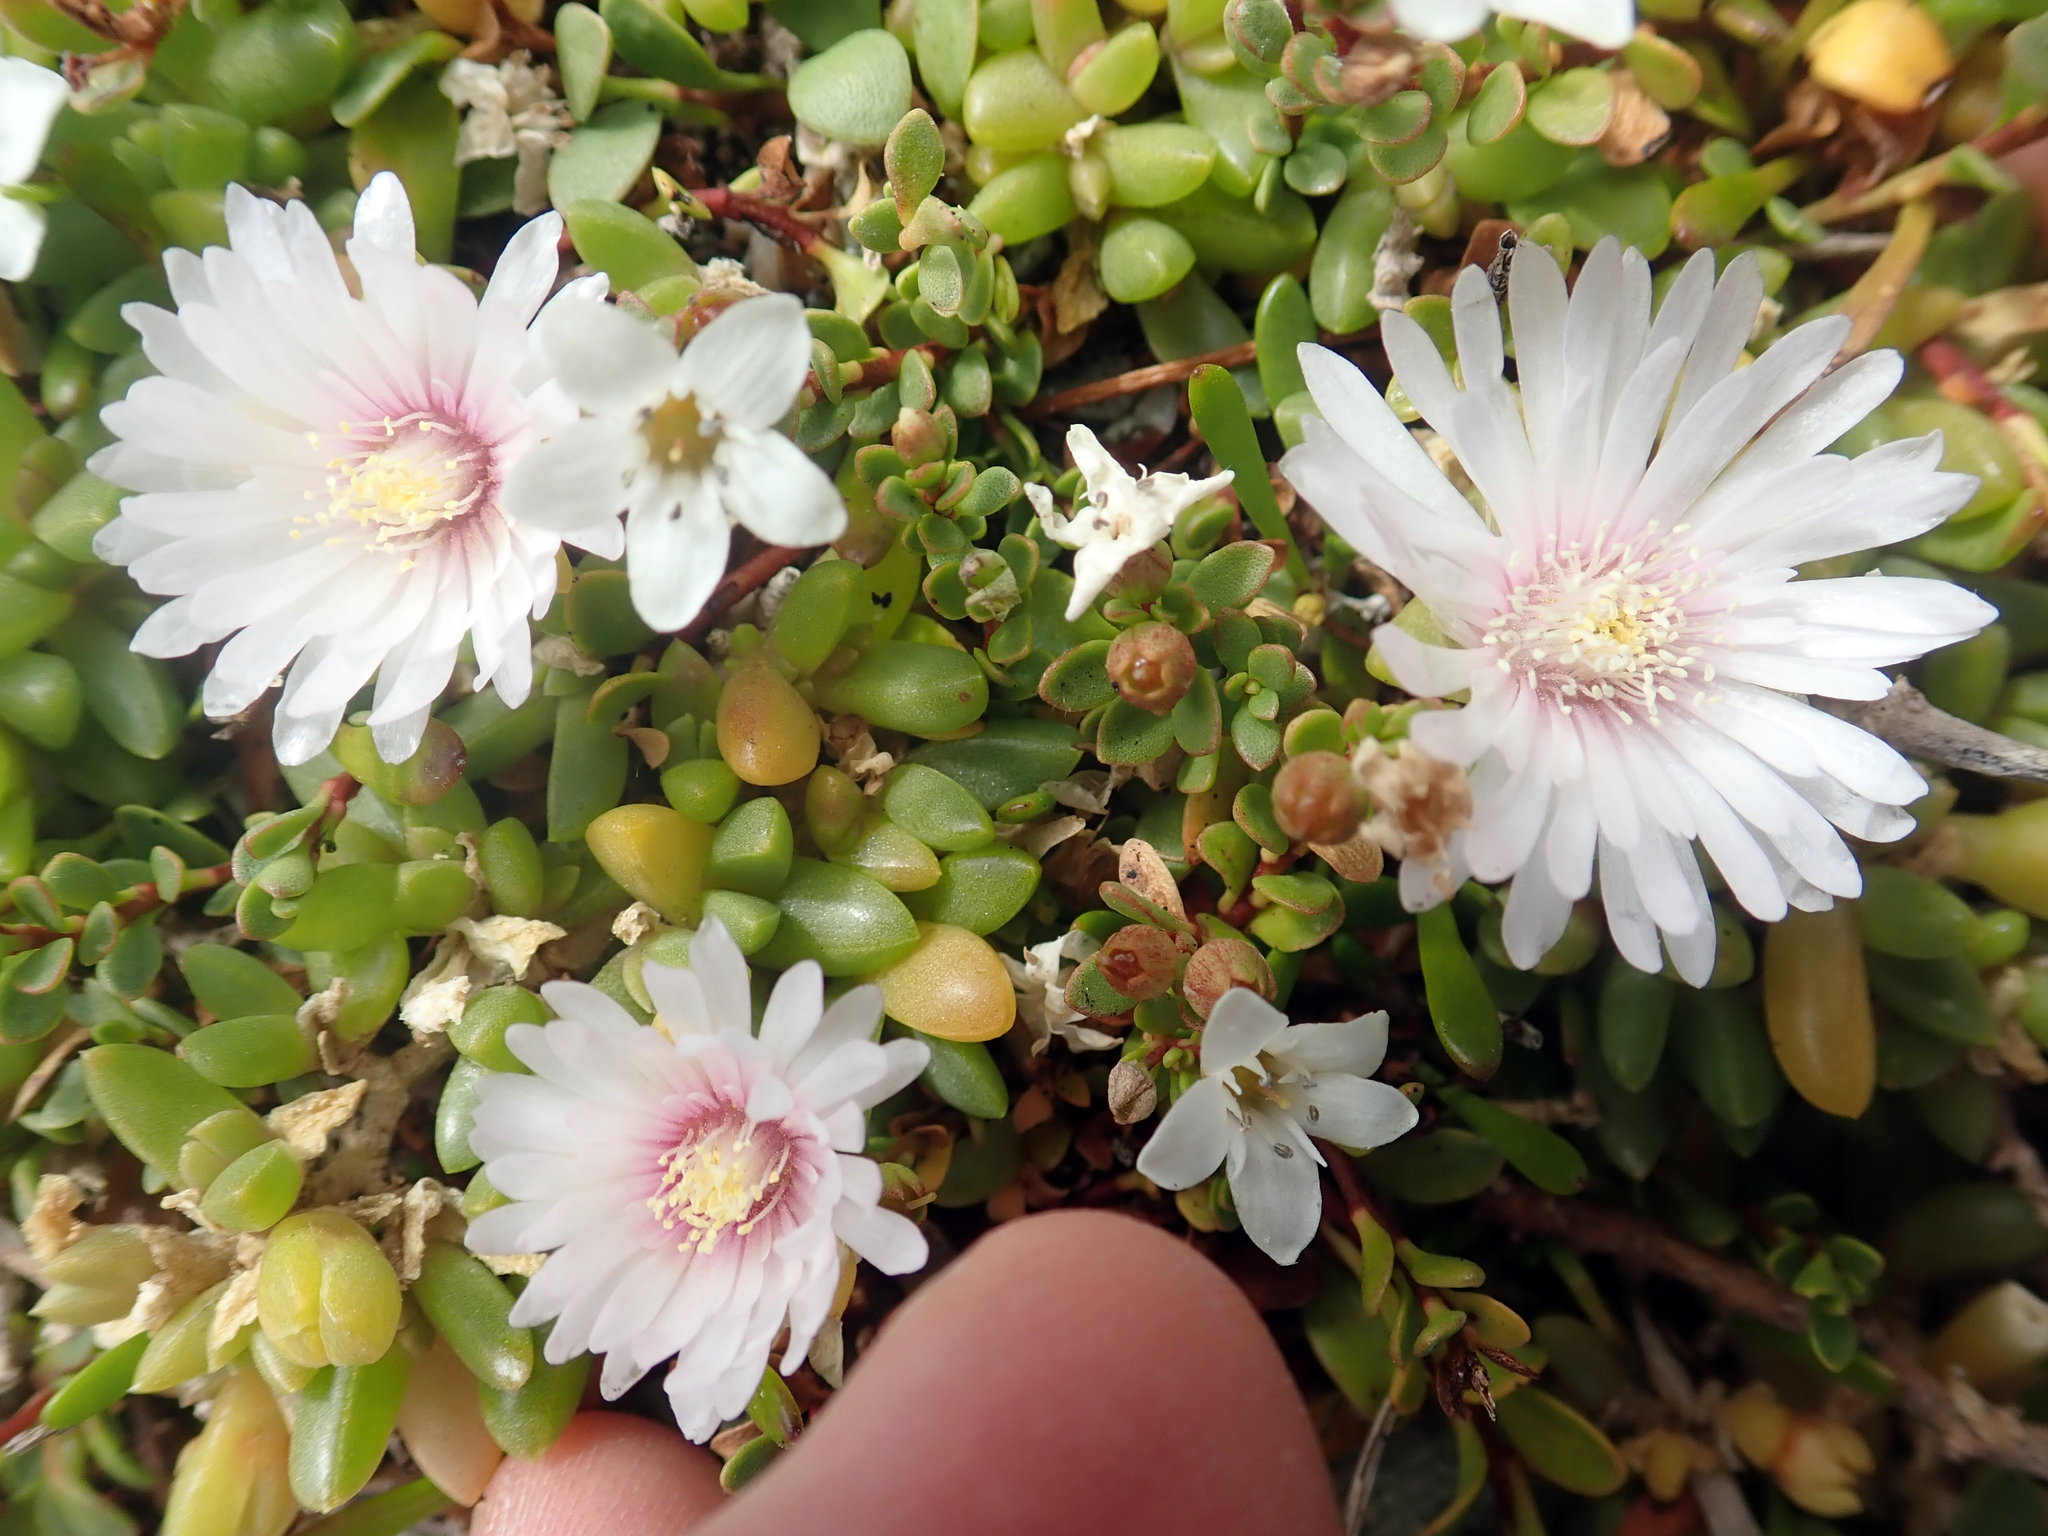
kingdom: Plantae
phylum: Tracheophyta
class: Magnoliopsida
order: Caryophyllales
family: Aizoaceae
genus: Disphyma
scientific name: Disphyma papillatum
